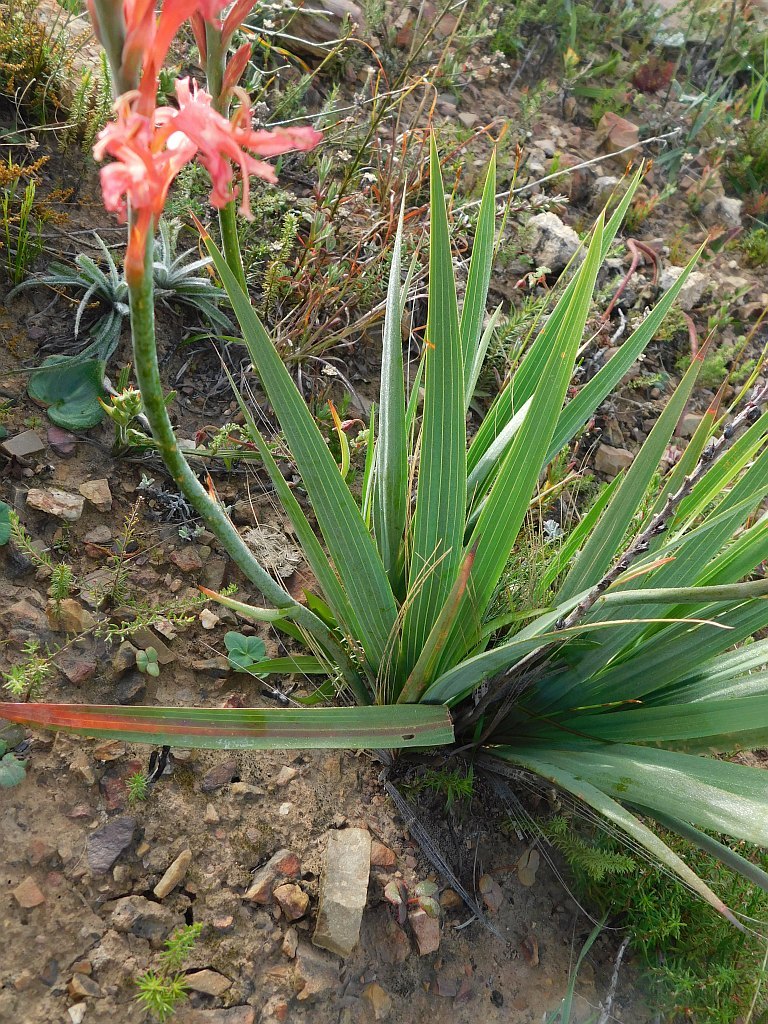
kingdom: Plantae
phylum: Tracheophyta
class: Liliopsida
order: Asparagales
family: Iridaceae
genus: Tritoniopsis
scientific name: Tritoniopsis antholyza
